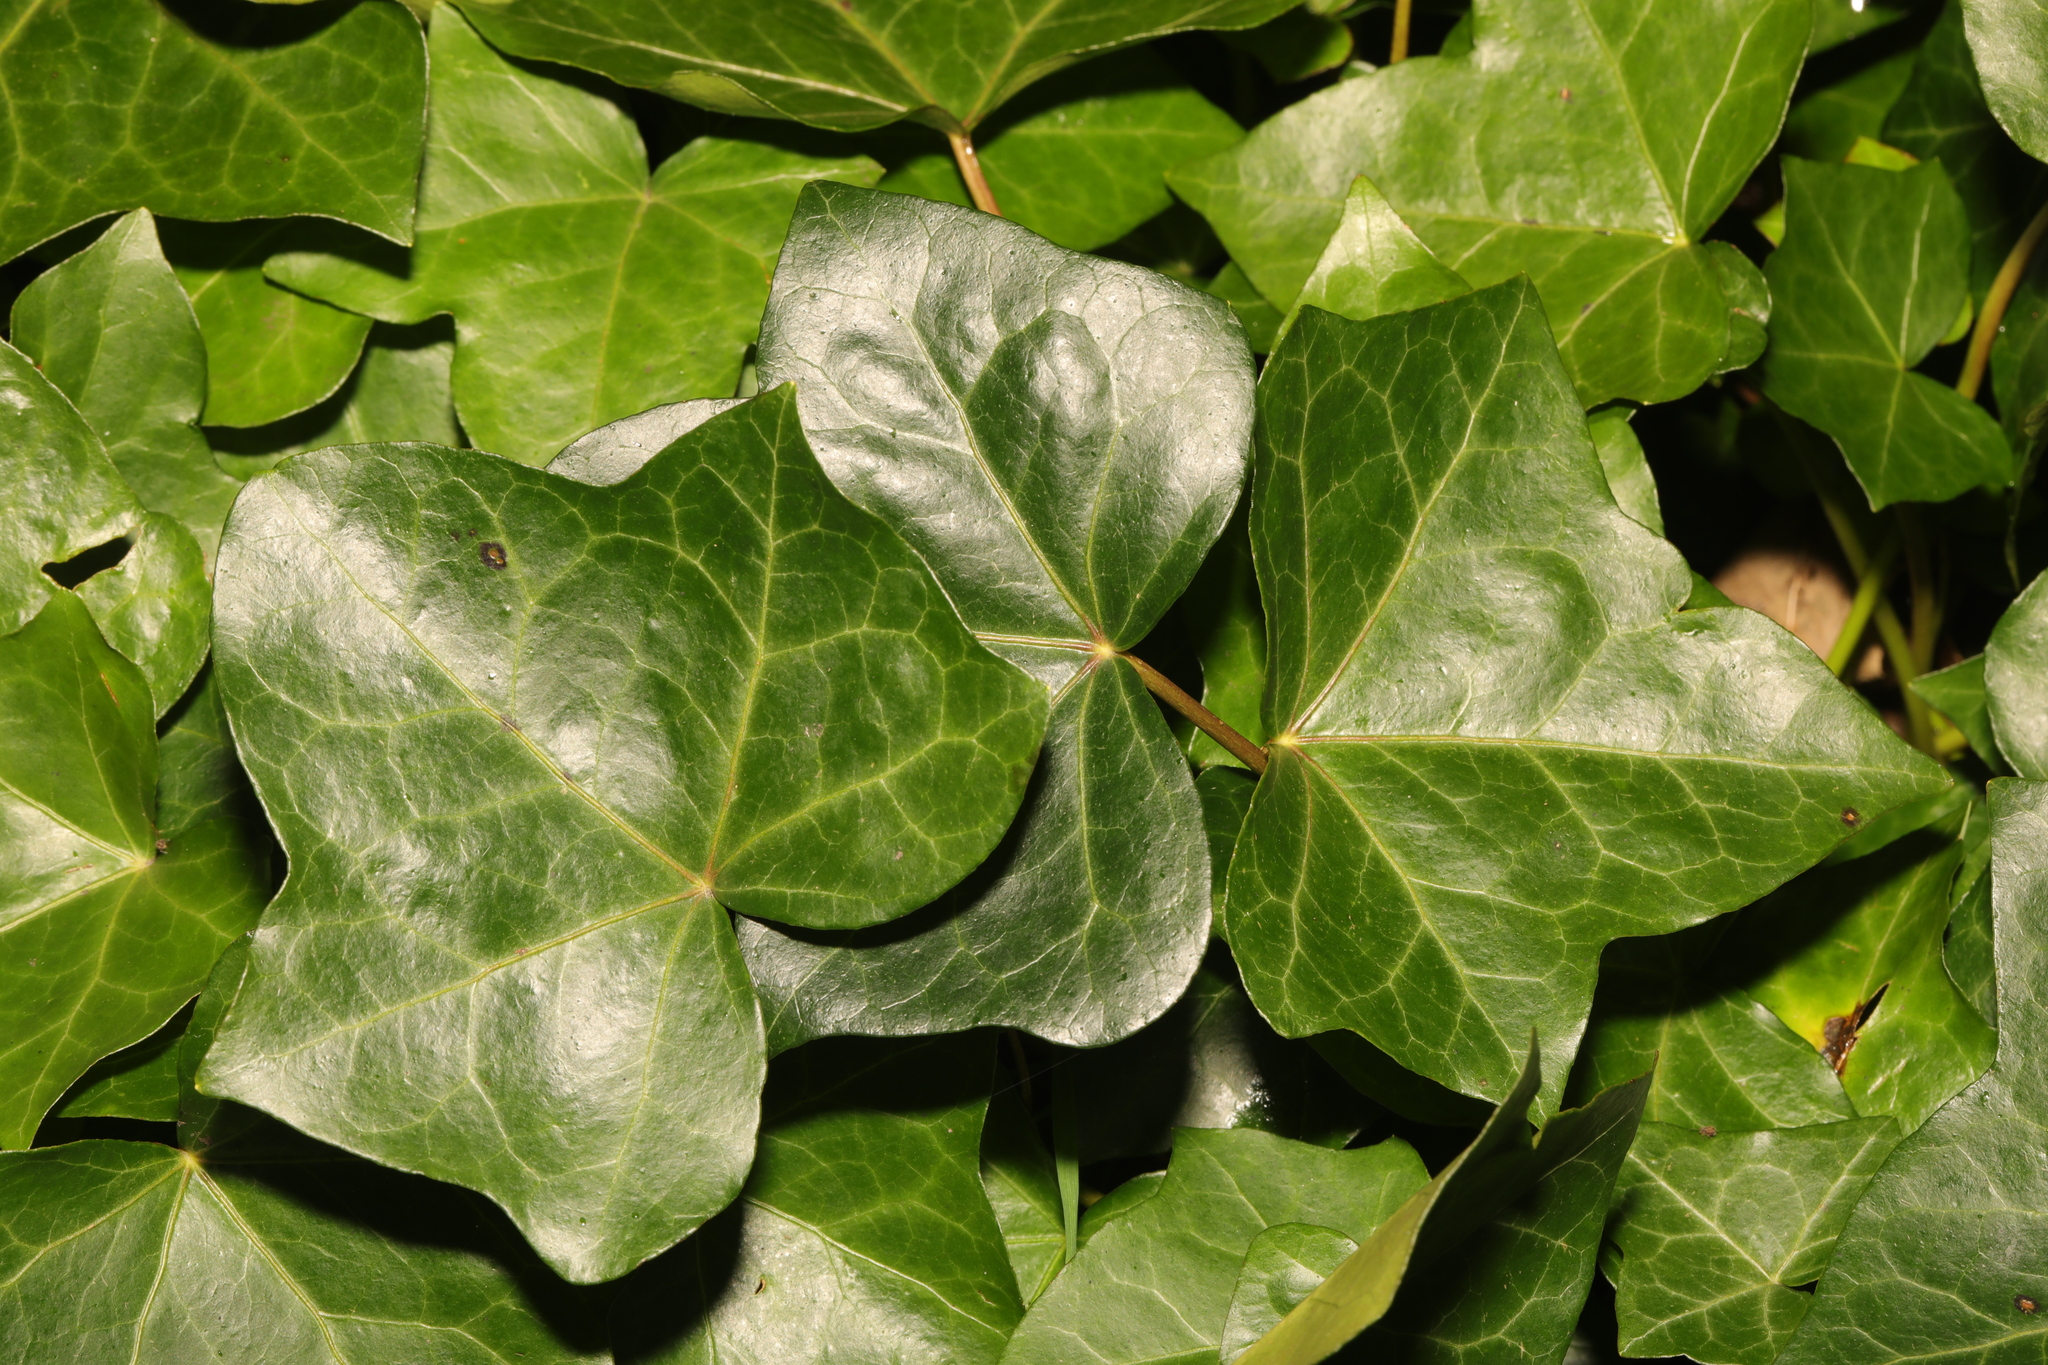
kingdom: Plantae
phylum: Tracheophyta
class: Magnoliopsida
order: Apiales
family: Araliaceae
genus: Hedera
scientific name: Hedera helix
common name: Ivy
